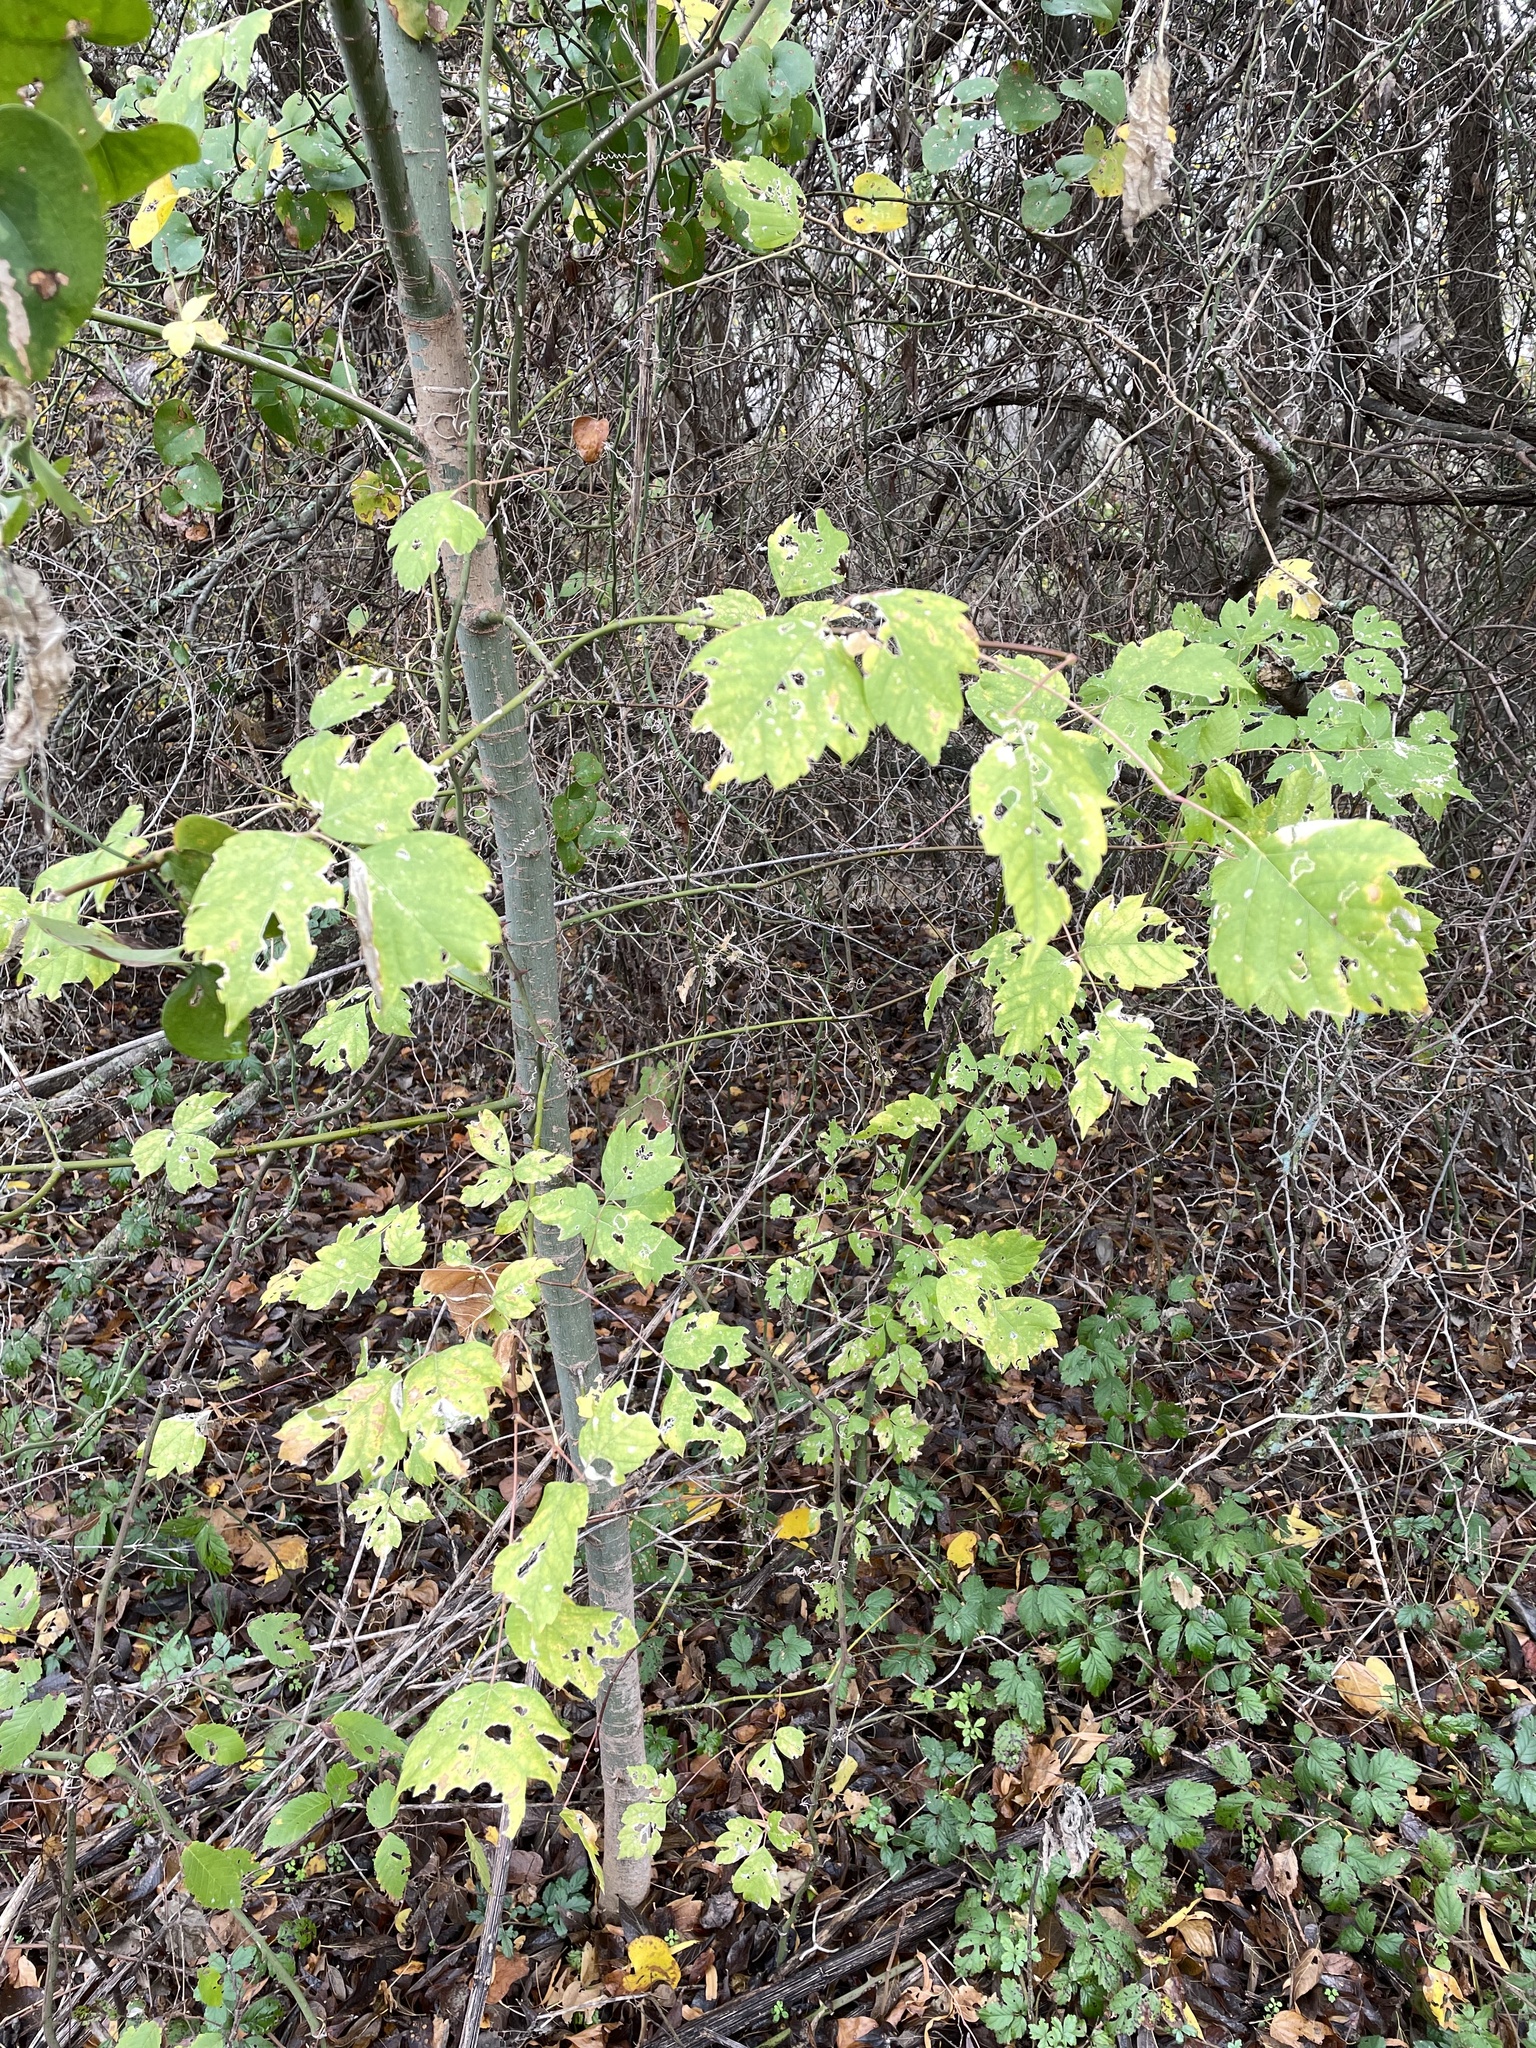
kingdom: Plantae
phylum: Tracheophyta
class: Magnoliopsida
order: Sapindales
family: Sapindaceae
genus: Acer
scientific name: Acer negundo
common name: Ashleaf maple
